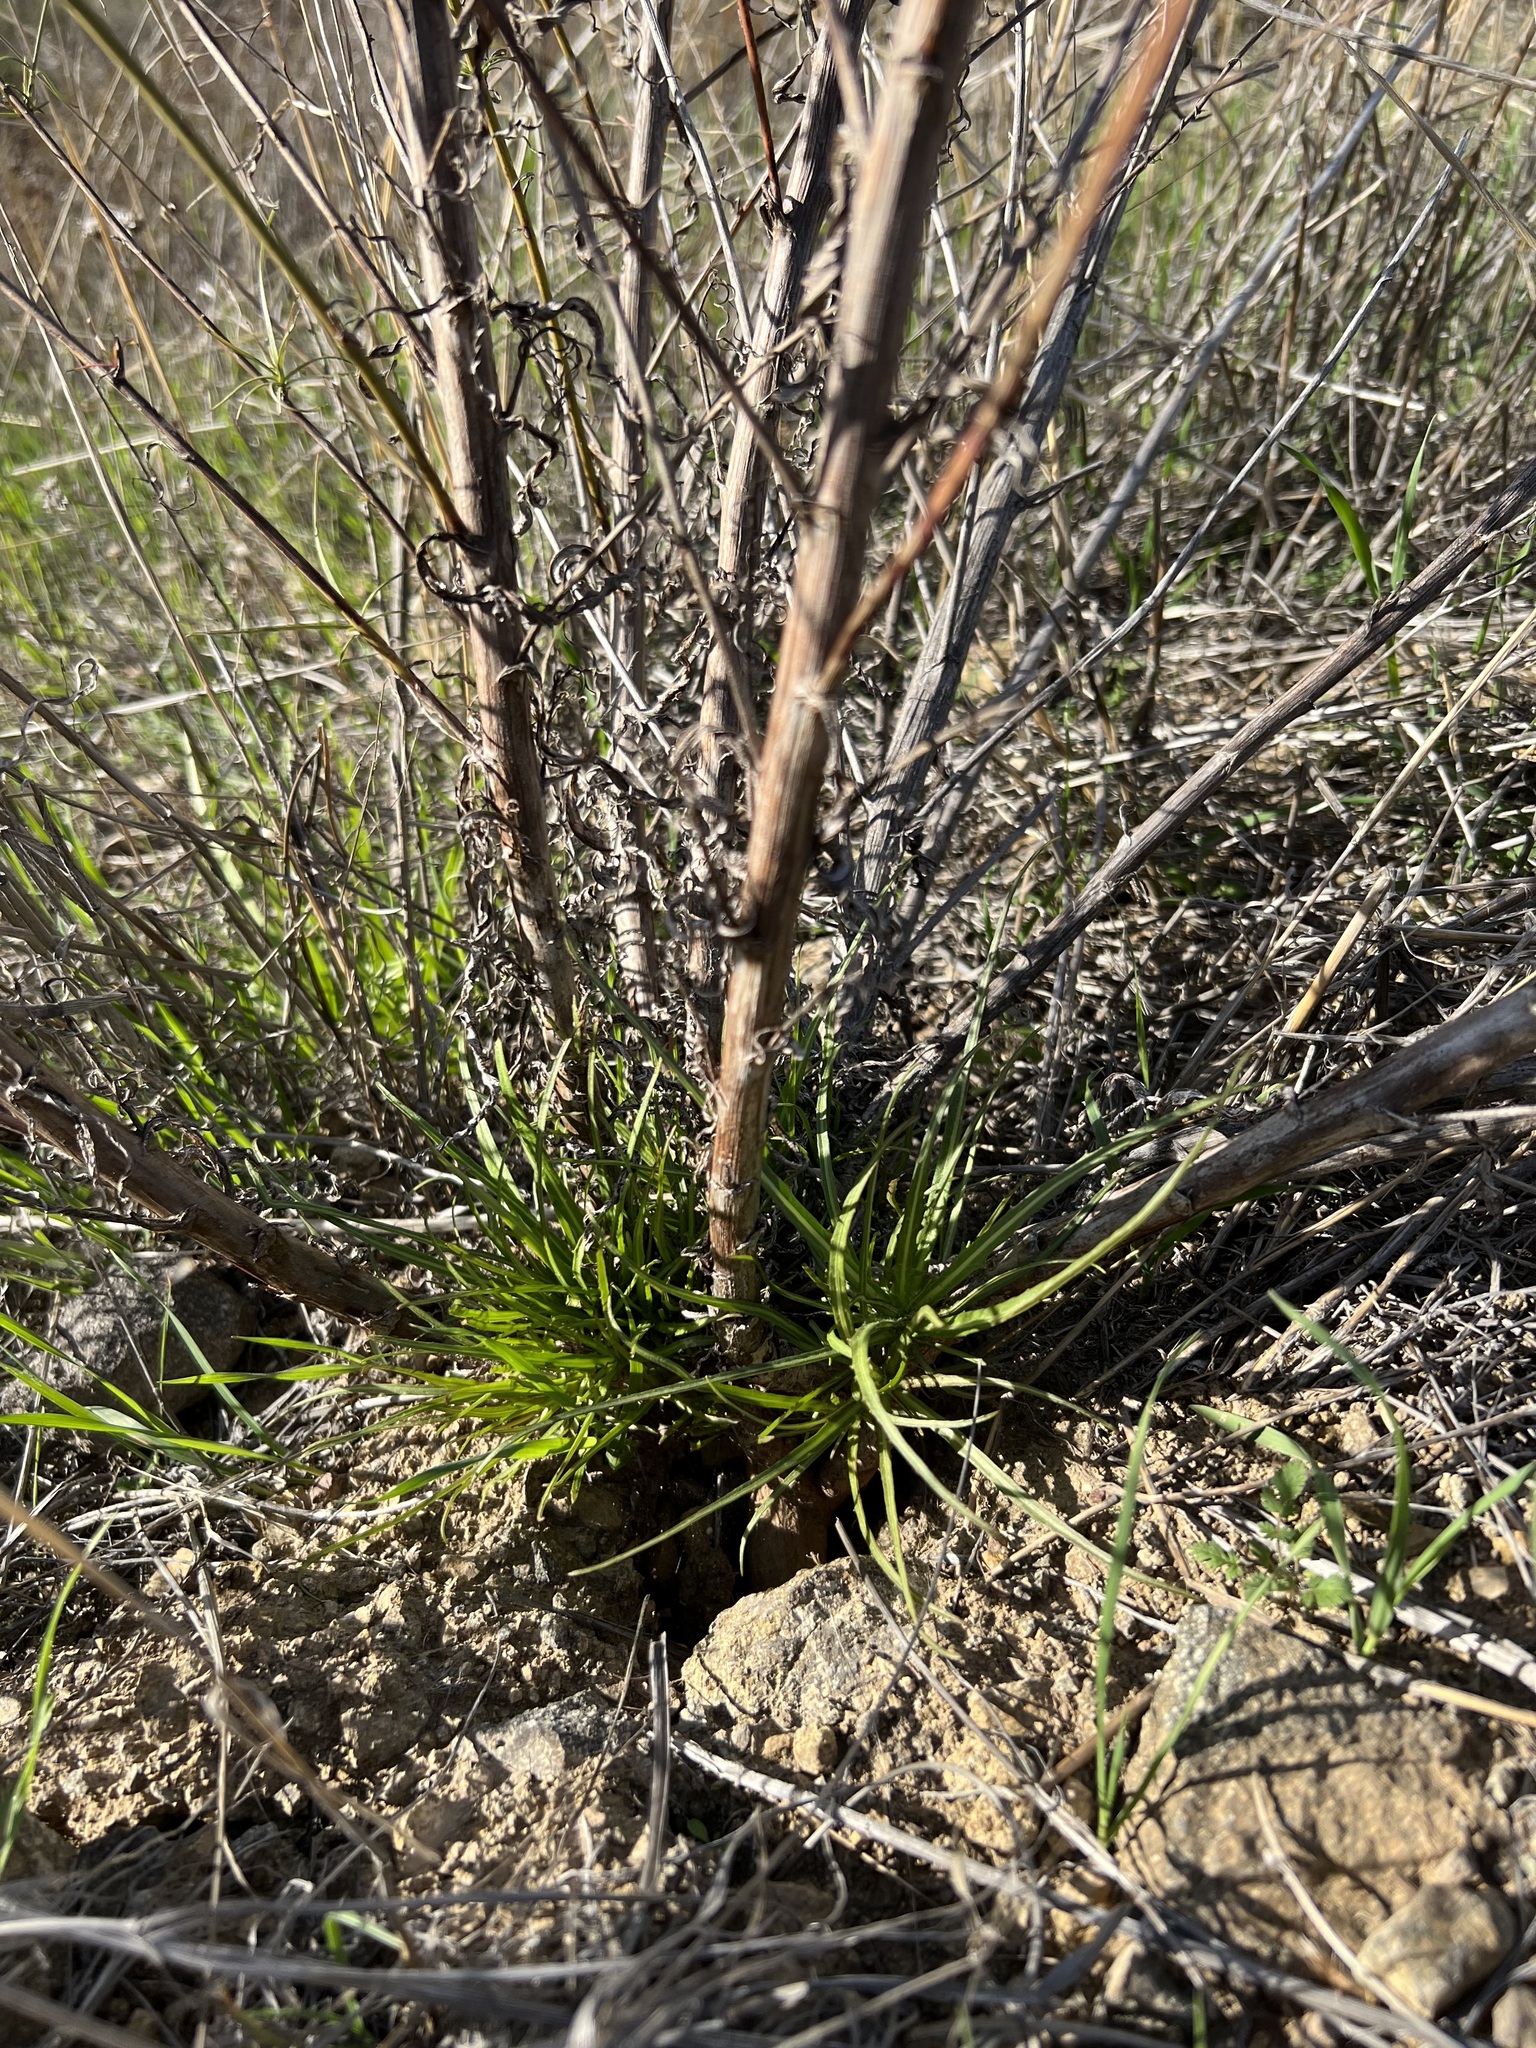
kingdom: Plantae
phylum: Tracheophyta
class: Magnoliopsida
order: Asterales
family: Asteraceae
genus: Malacothrix
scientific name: Malacothrix saxatilis
